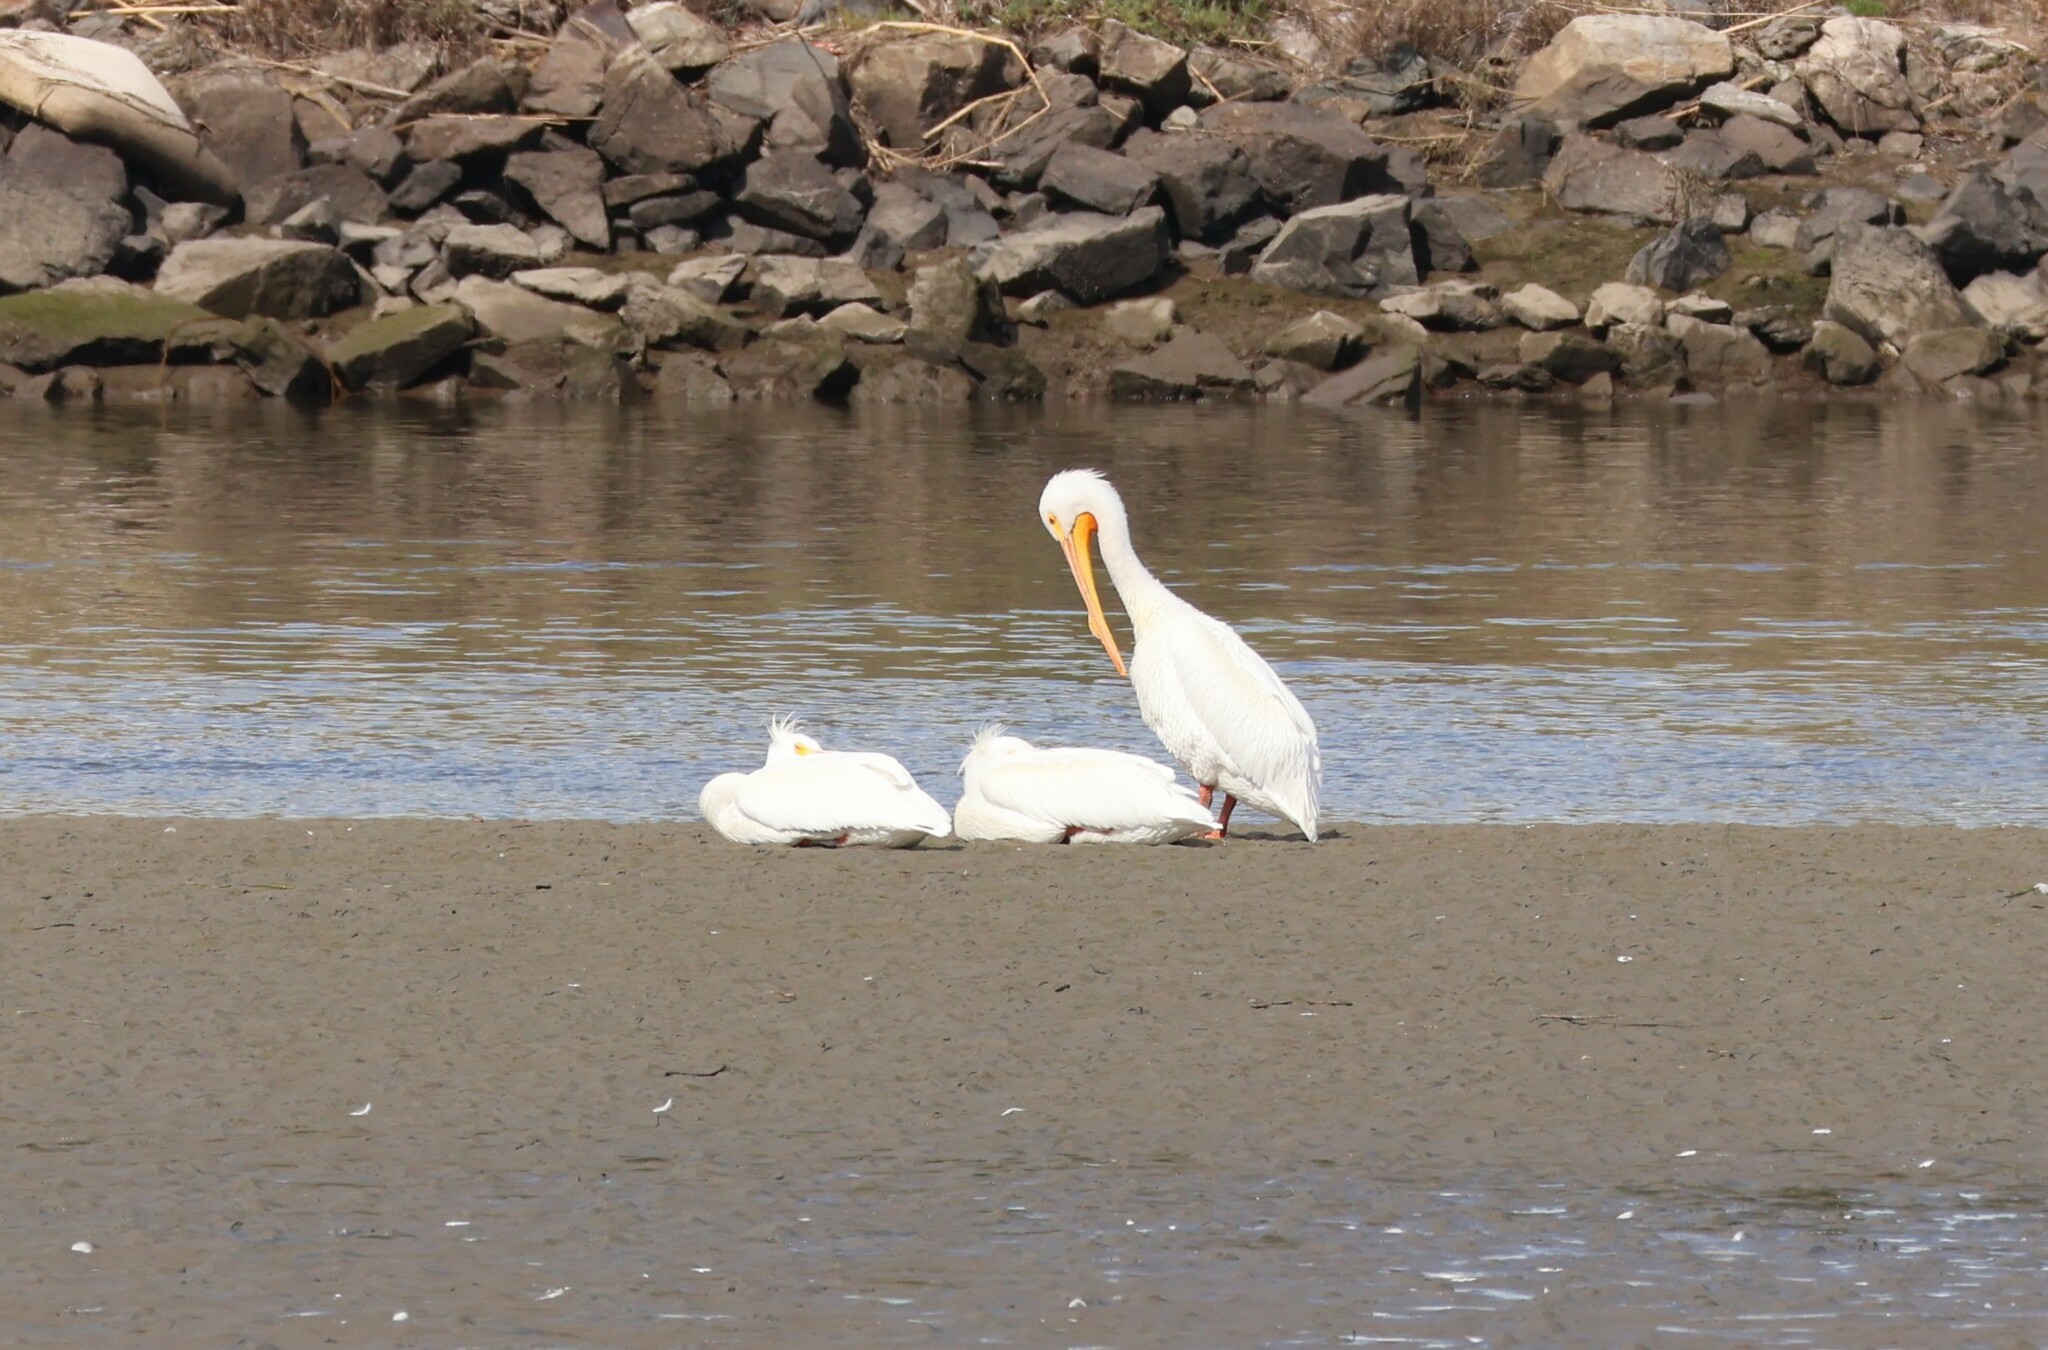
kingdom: Animalia
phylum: Chordata
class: Aves
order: Pelecaniformes
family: Pelecanidae
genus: Pelecanus
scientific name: Pelecanus erythrorhynchos
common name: American white pelican
